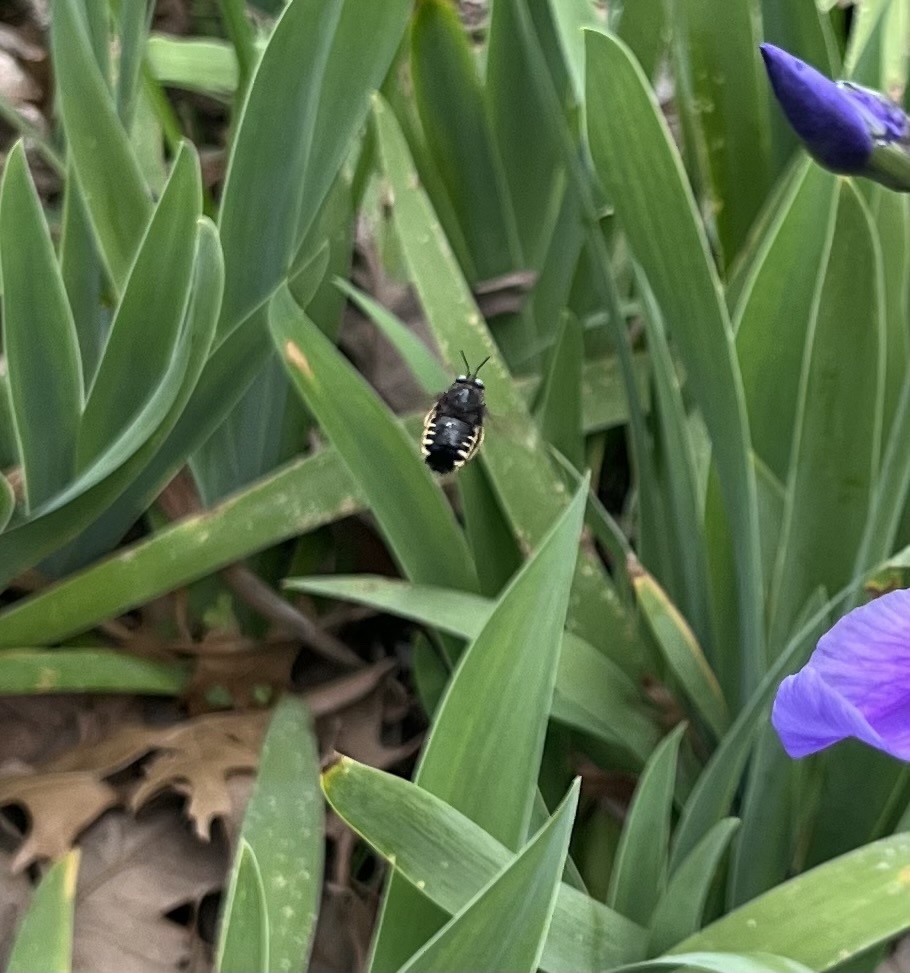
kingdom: Animalia
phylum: Arthropoda
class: Insecta
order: Hymenoptera
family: Apidae
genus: Xylocopa
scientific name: Xylocopa tabaniformis
